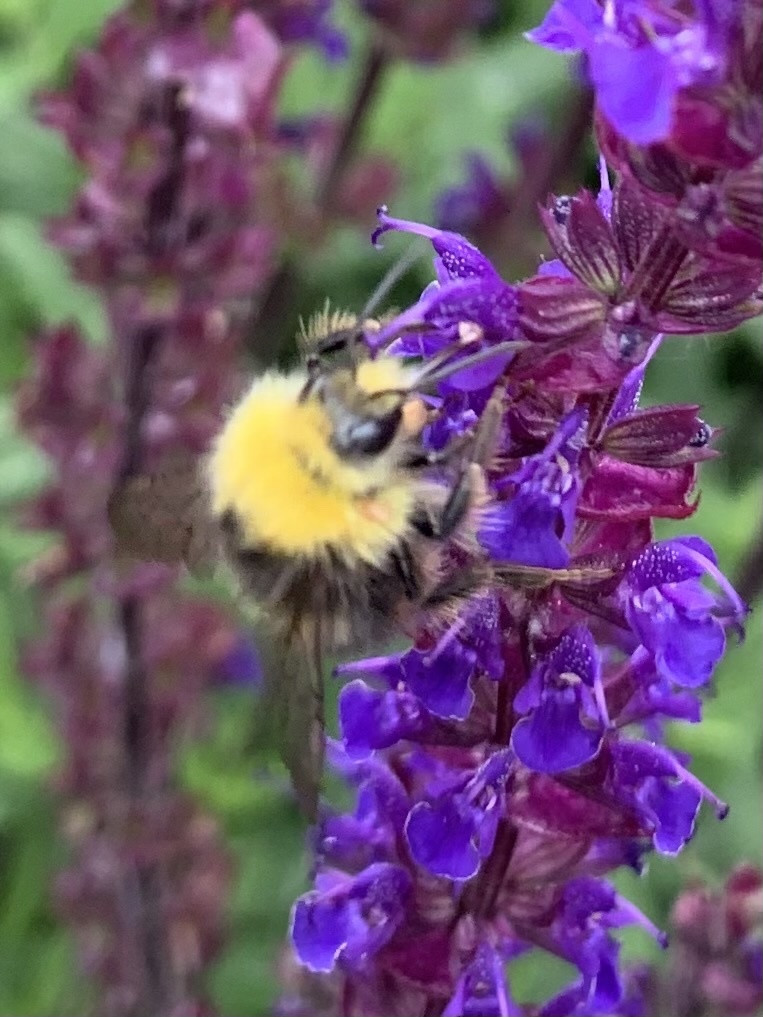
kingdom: Animalia
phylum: Arthropoda
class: Insecta
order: Hymenoptera
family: Apidae
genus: Bombus
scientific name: Bombus pratorum
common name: Early humble-bee
